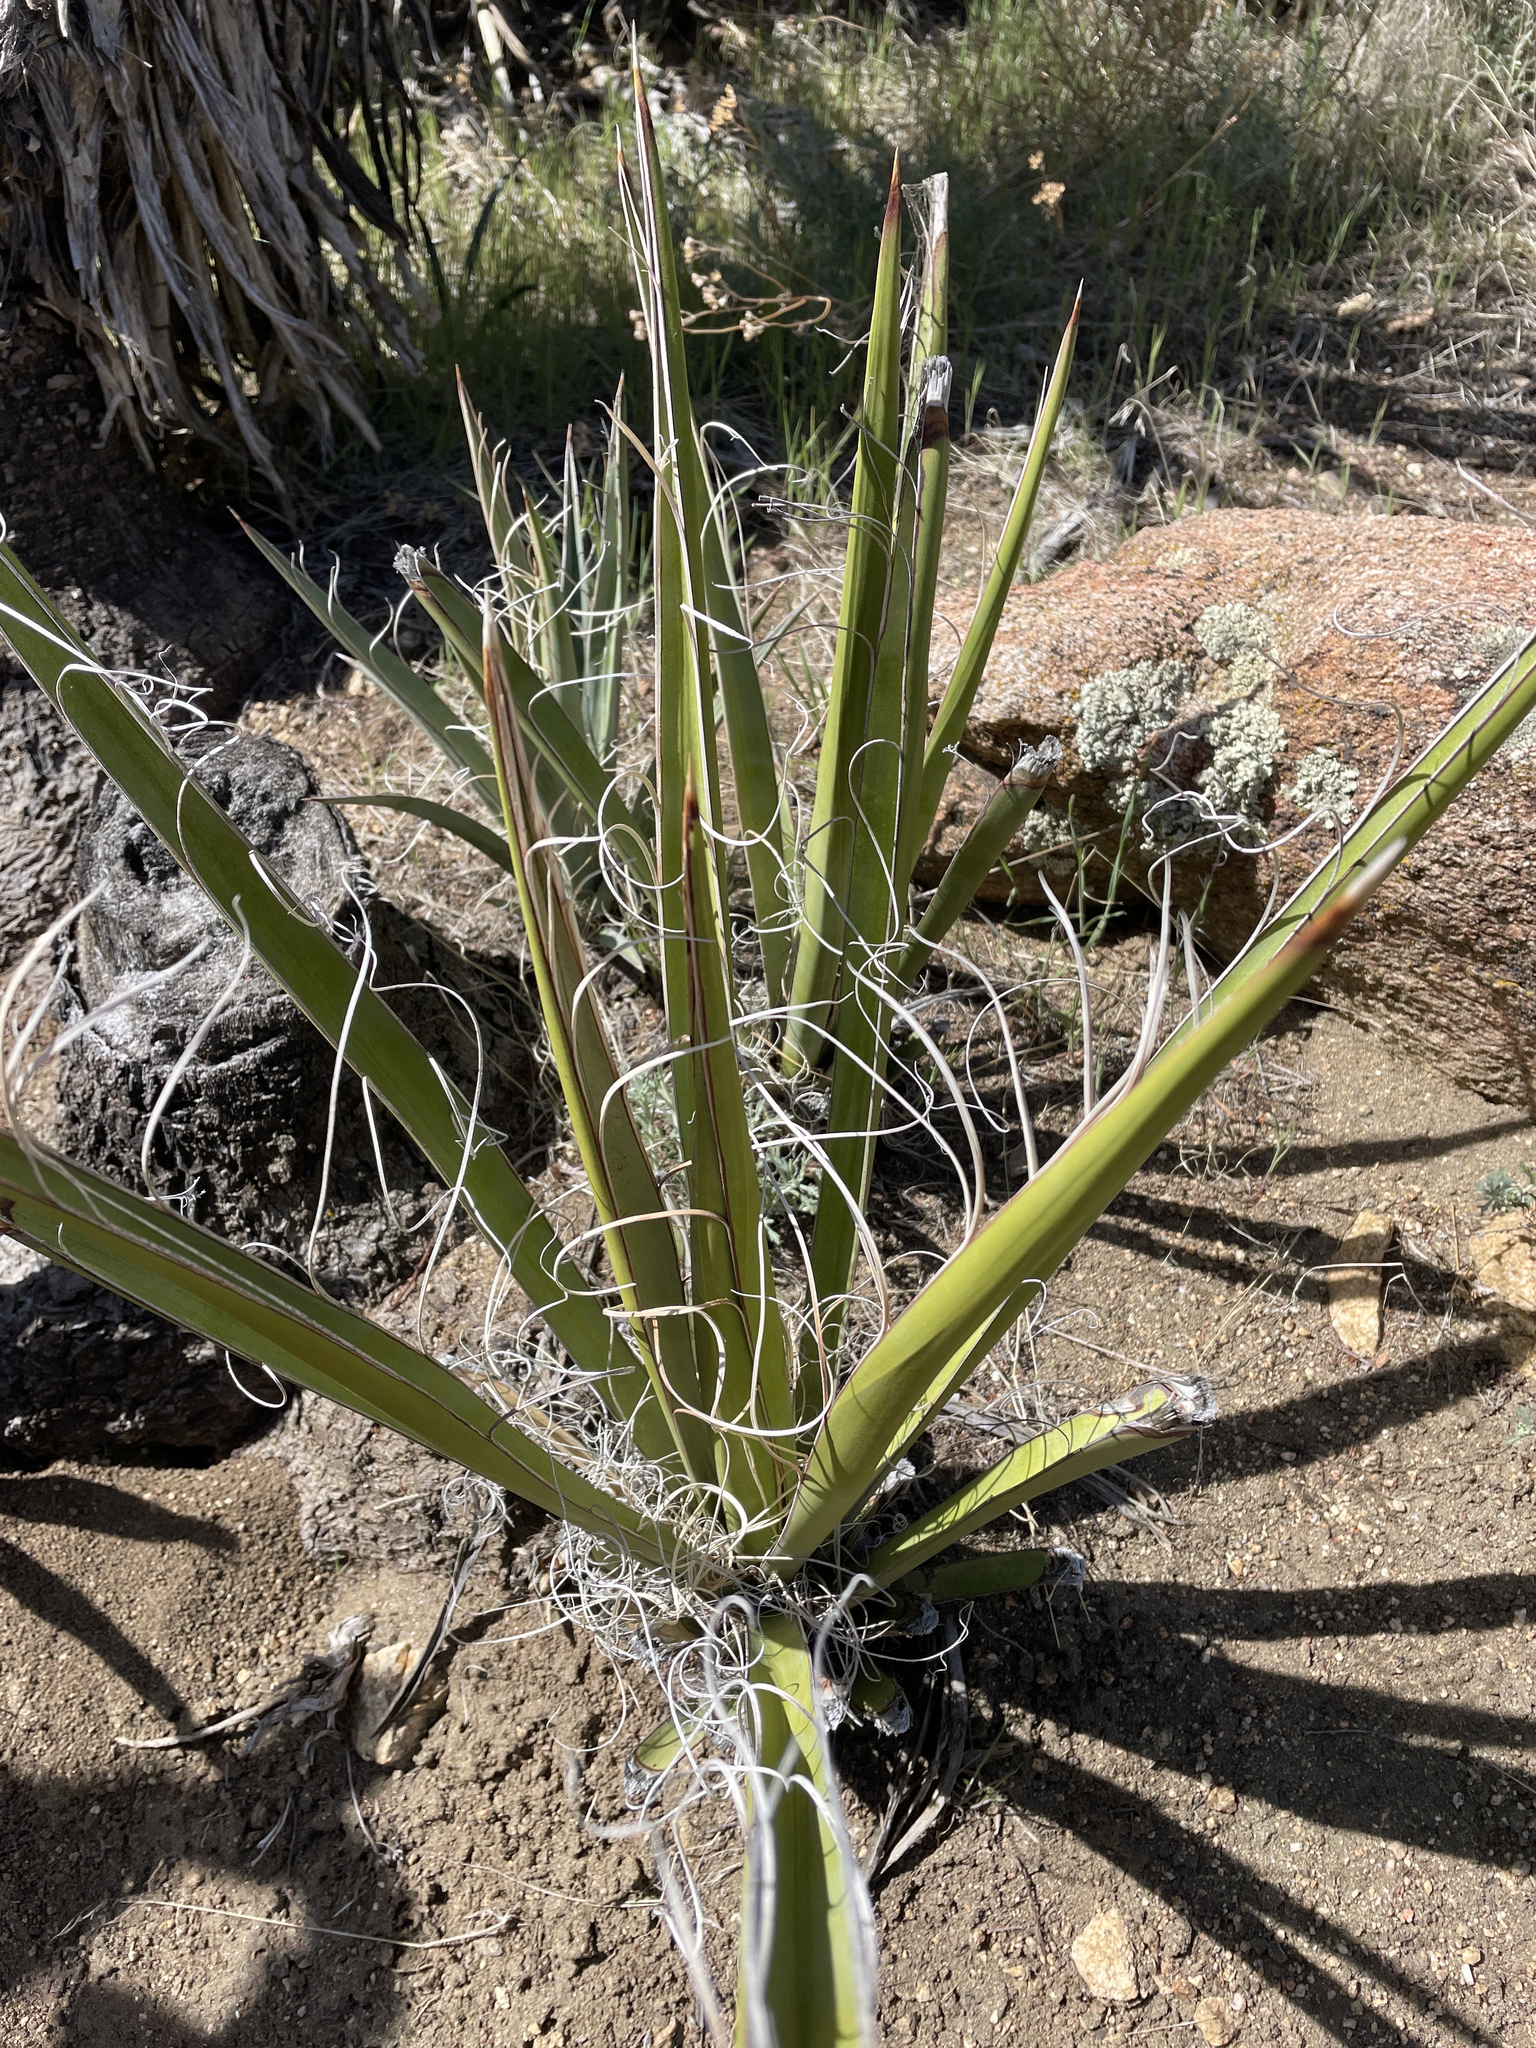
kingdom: Plantae
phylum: Tracheophyta
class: Liliopsida
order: Asparagales
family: Asparagaceae
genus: Yucca
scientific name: Yucca schidigera
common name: Mojave yucca
